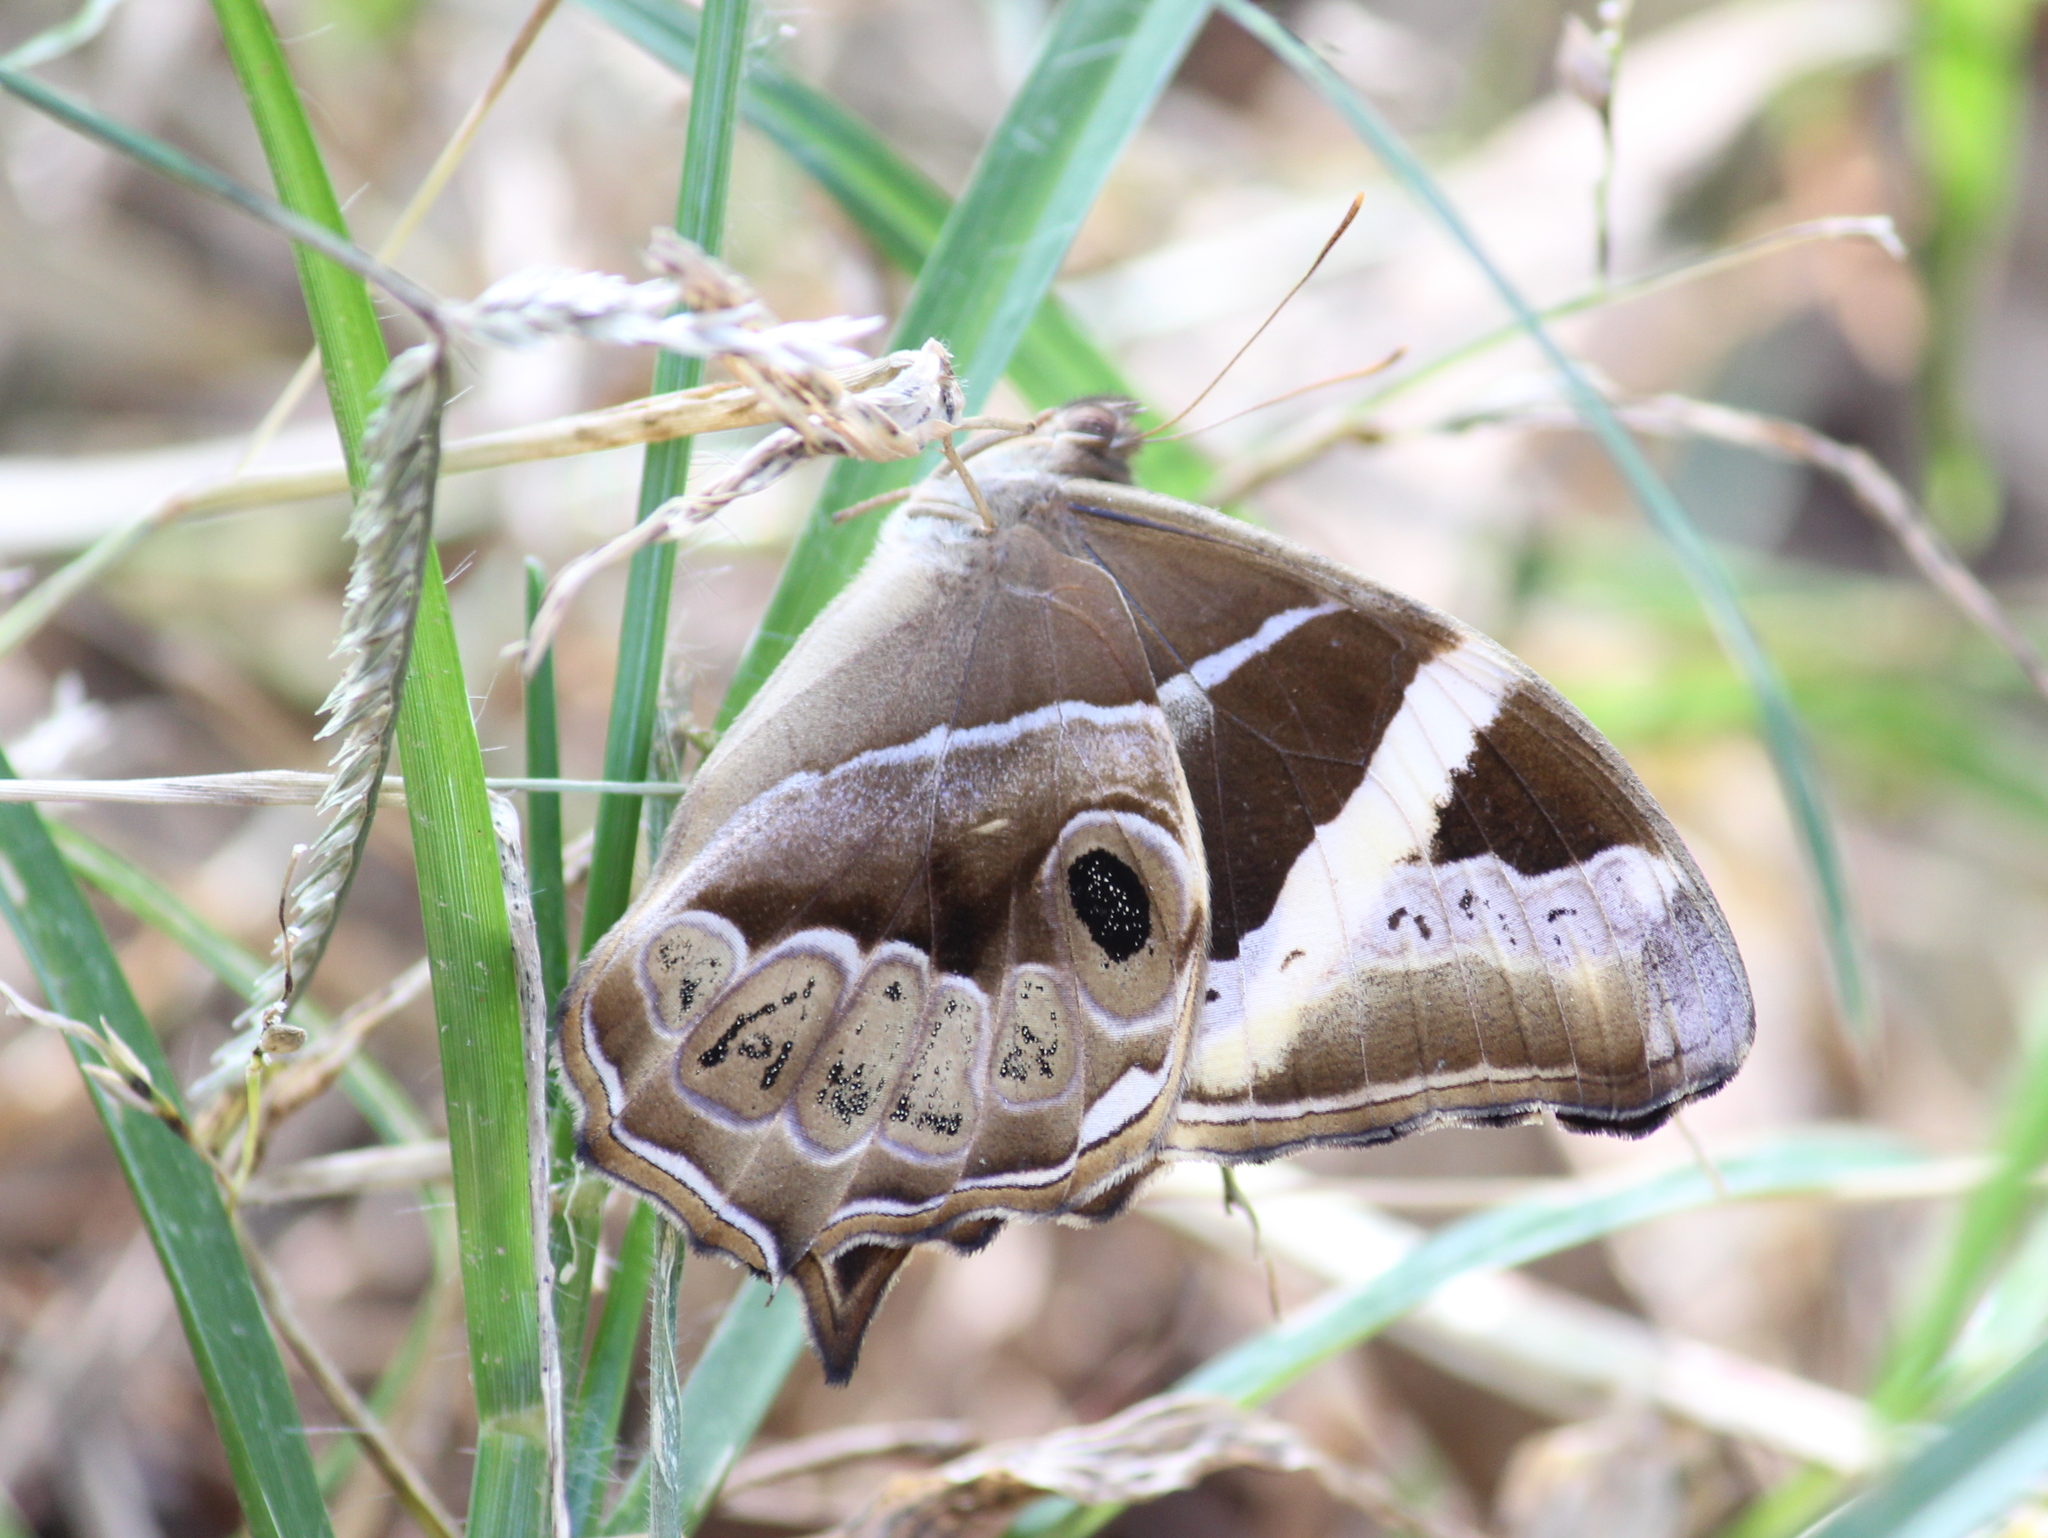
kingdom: Animalia
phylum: Arthropoda
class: Insecta
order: Lepidoptera
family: Nymphalidae
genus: Lethe
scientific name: Lethe europa
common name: Bamboo treebrown
